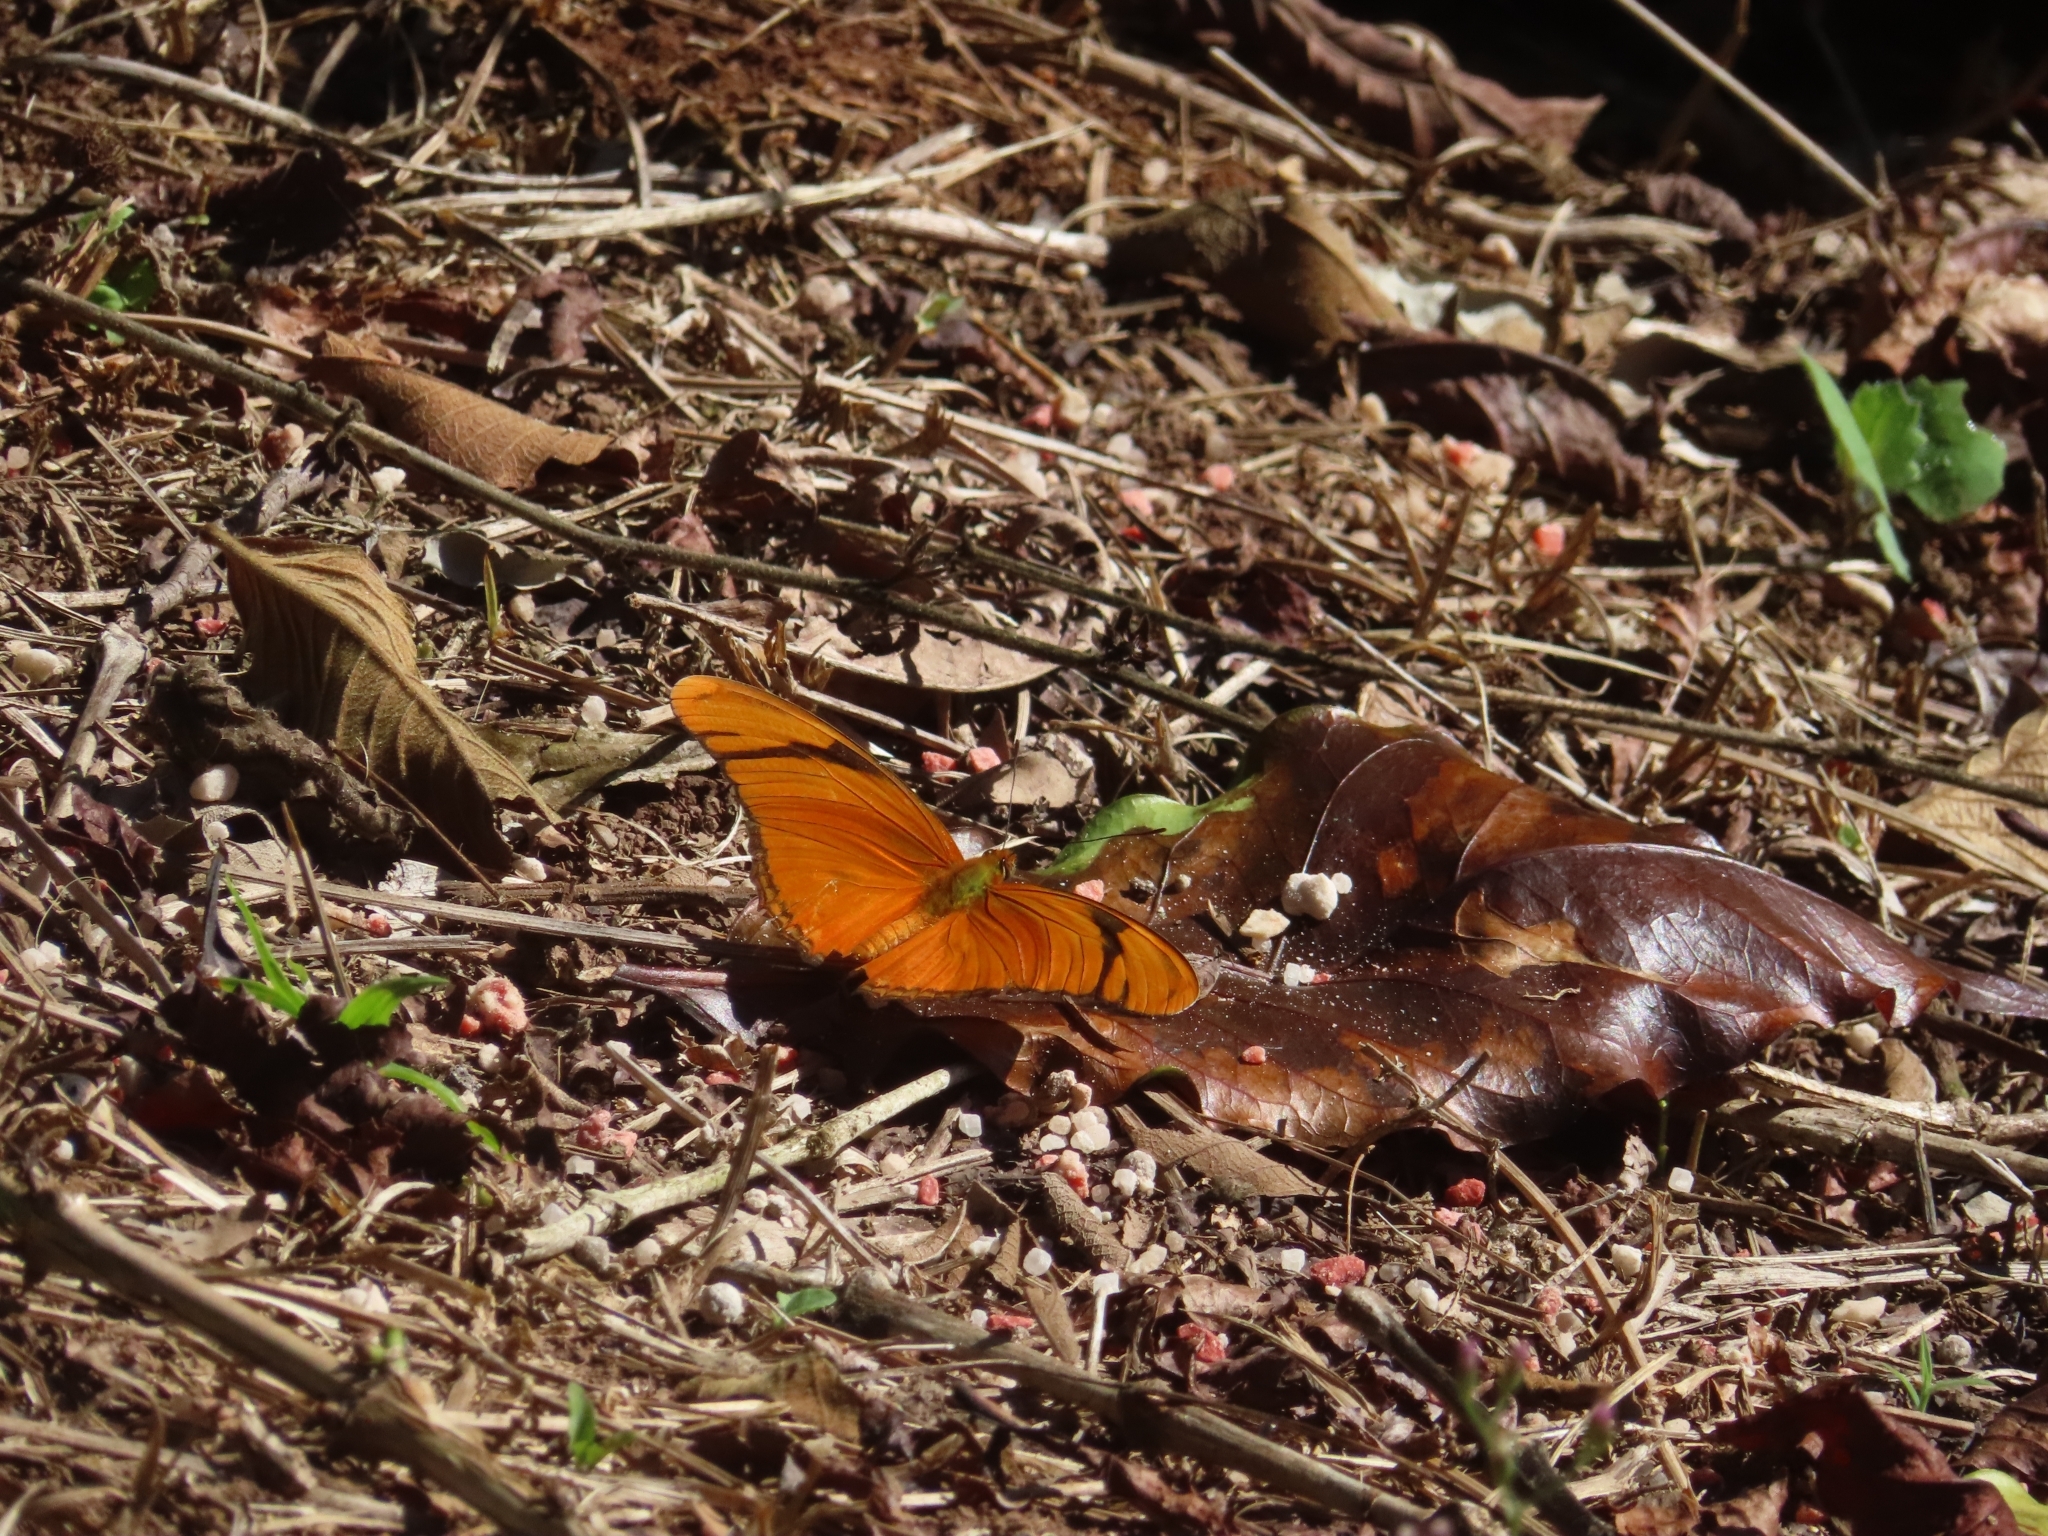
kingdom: Animalia
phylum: Arthropoda
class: Insecta
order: Lepidoptera
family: Nymphalidae
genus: Dryas
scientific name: Dryas iulia
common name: Flambeau
